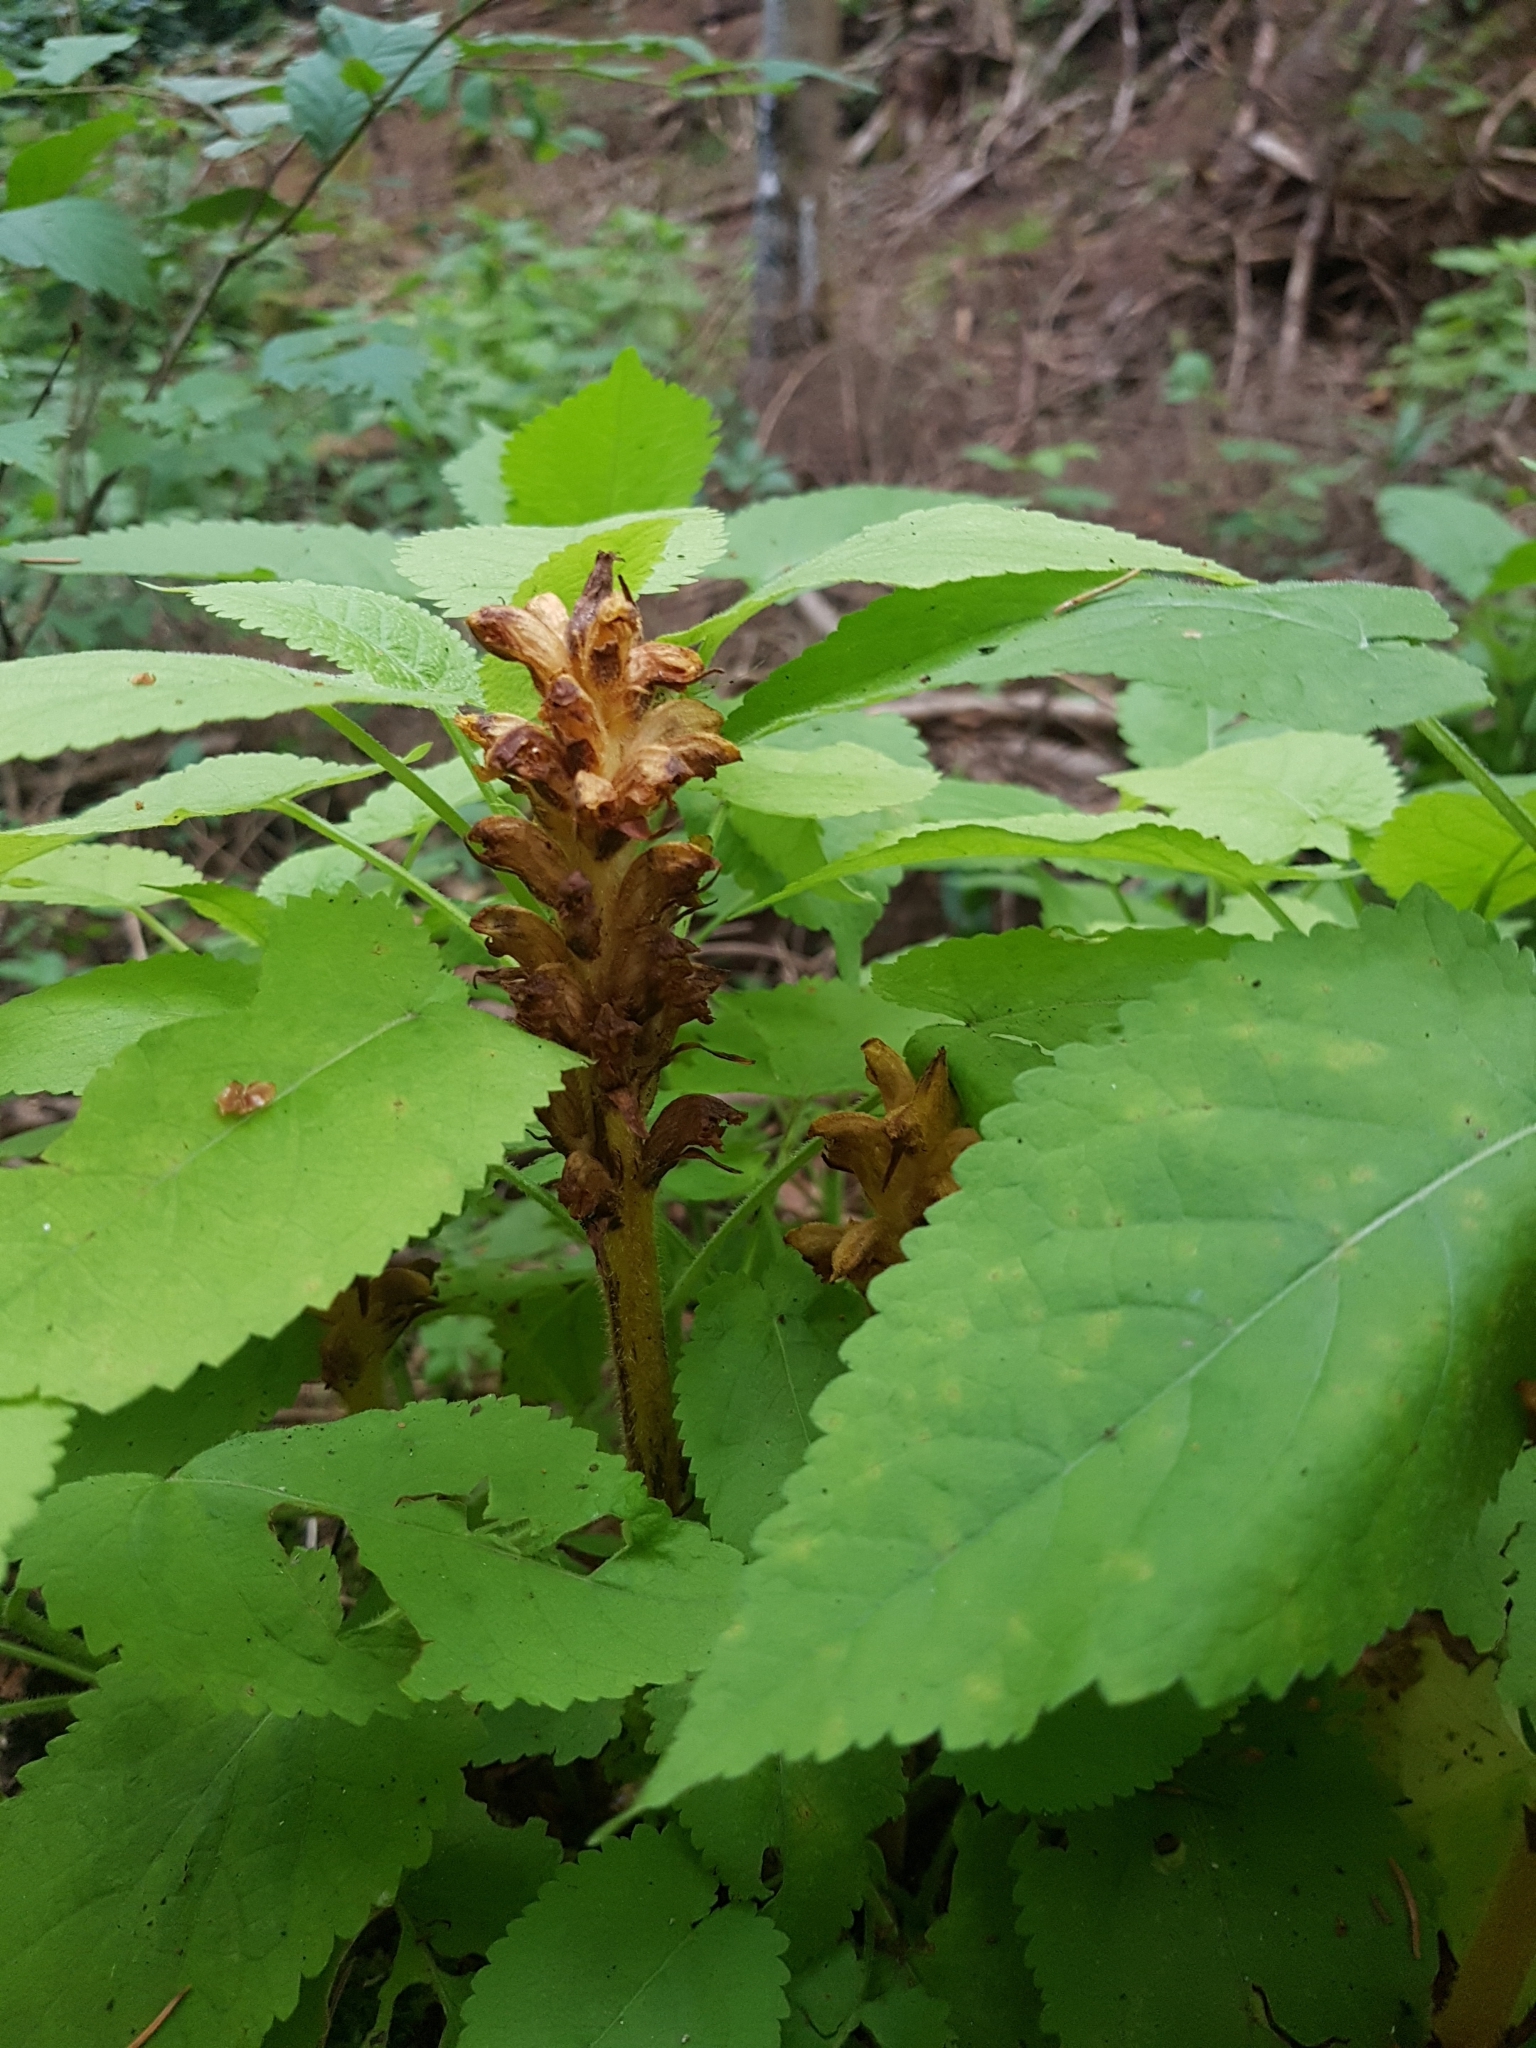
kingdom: Plantae
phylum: Tracheophyta
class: Magnoliopsida
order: Lamiales
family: Orobanchaceae
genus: Orobanche
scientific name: Orobanche salviae
